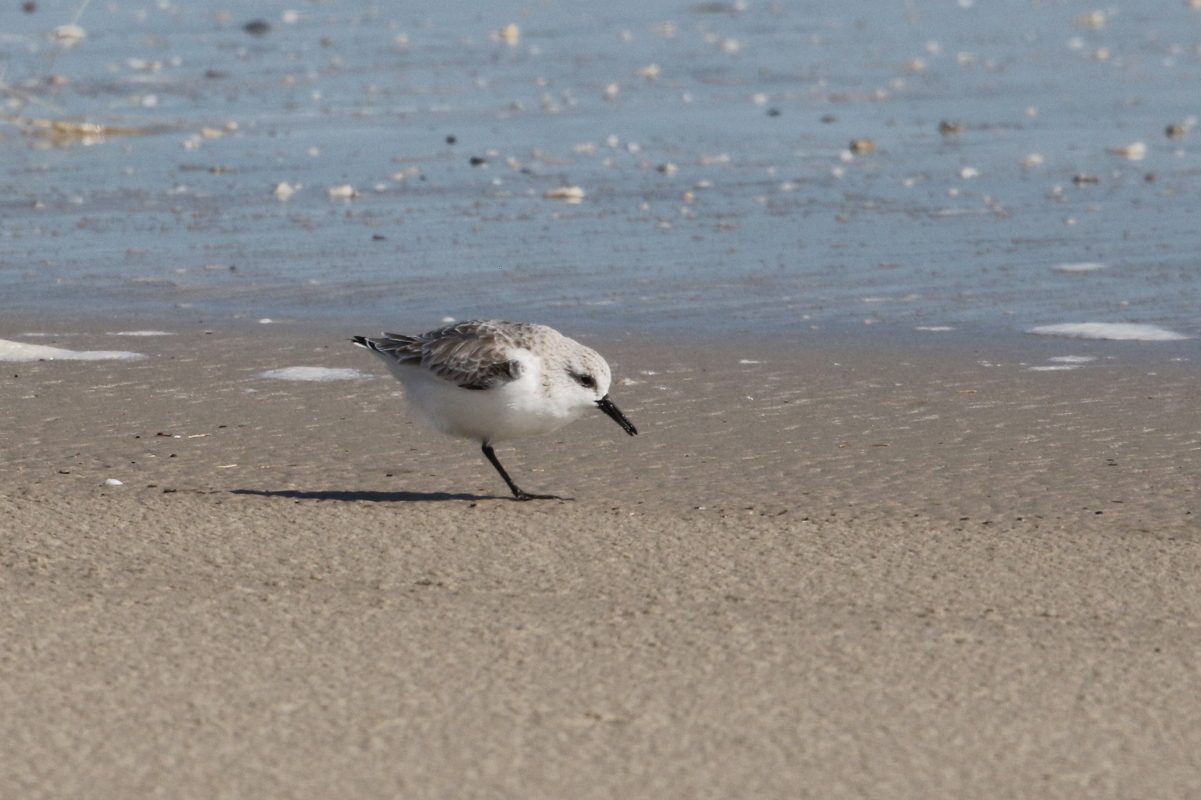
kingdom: Animalia
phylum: Chordata
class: Aves
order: Charadriiformes
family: Scolopacidae
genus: Calidris
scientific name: Calidris alba
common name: Sanderling
